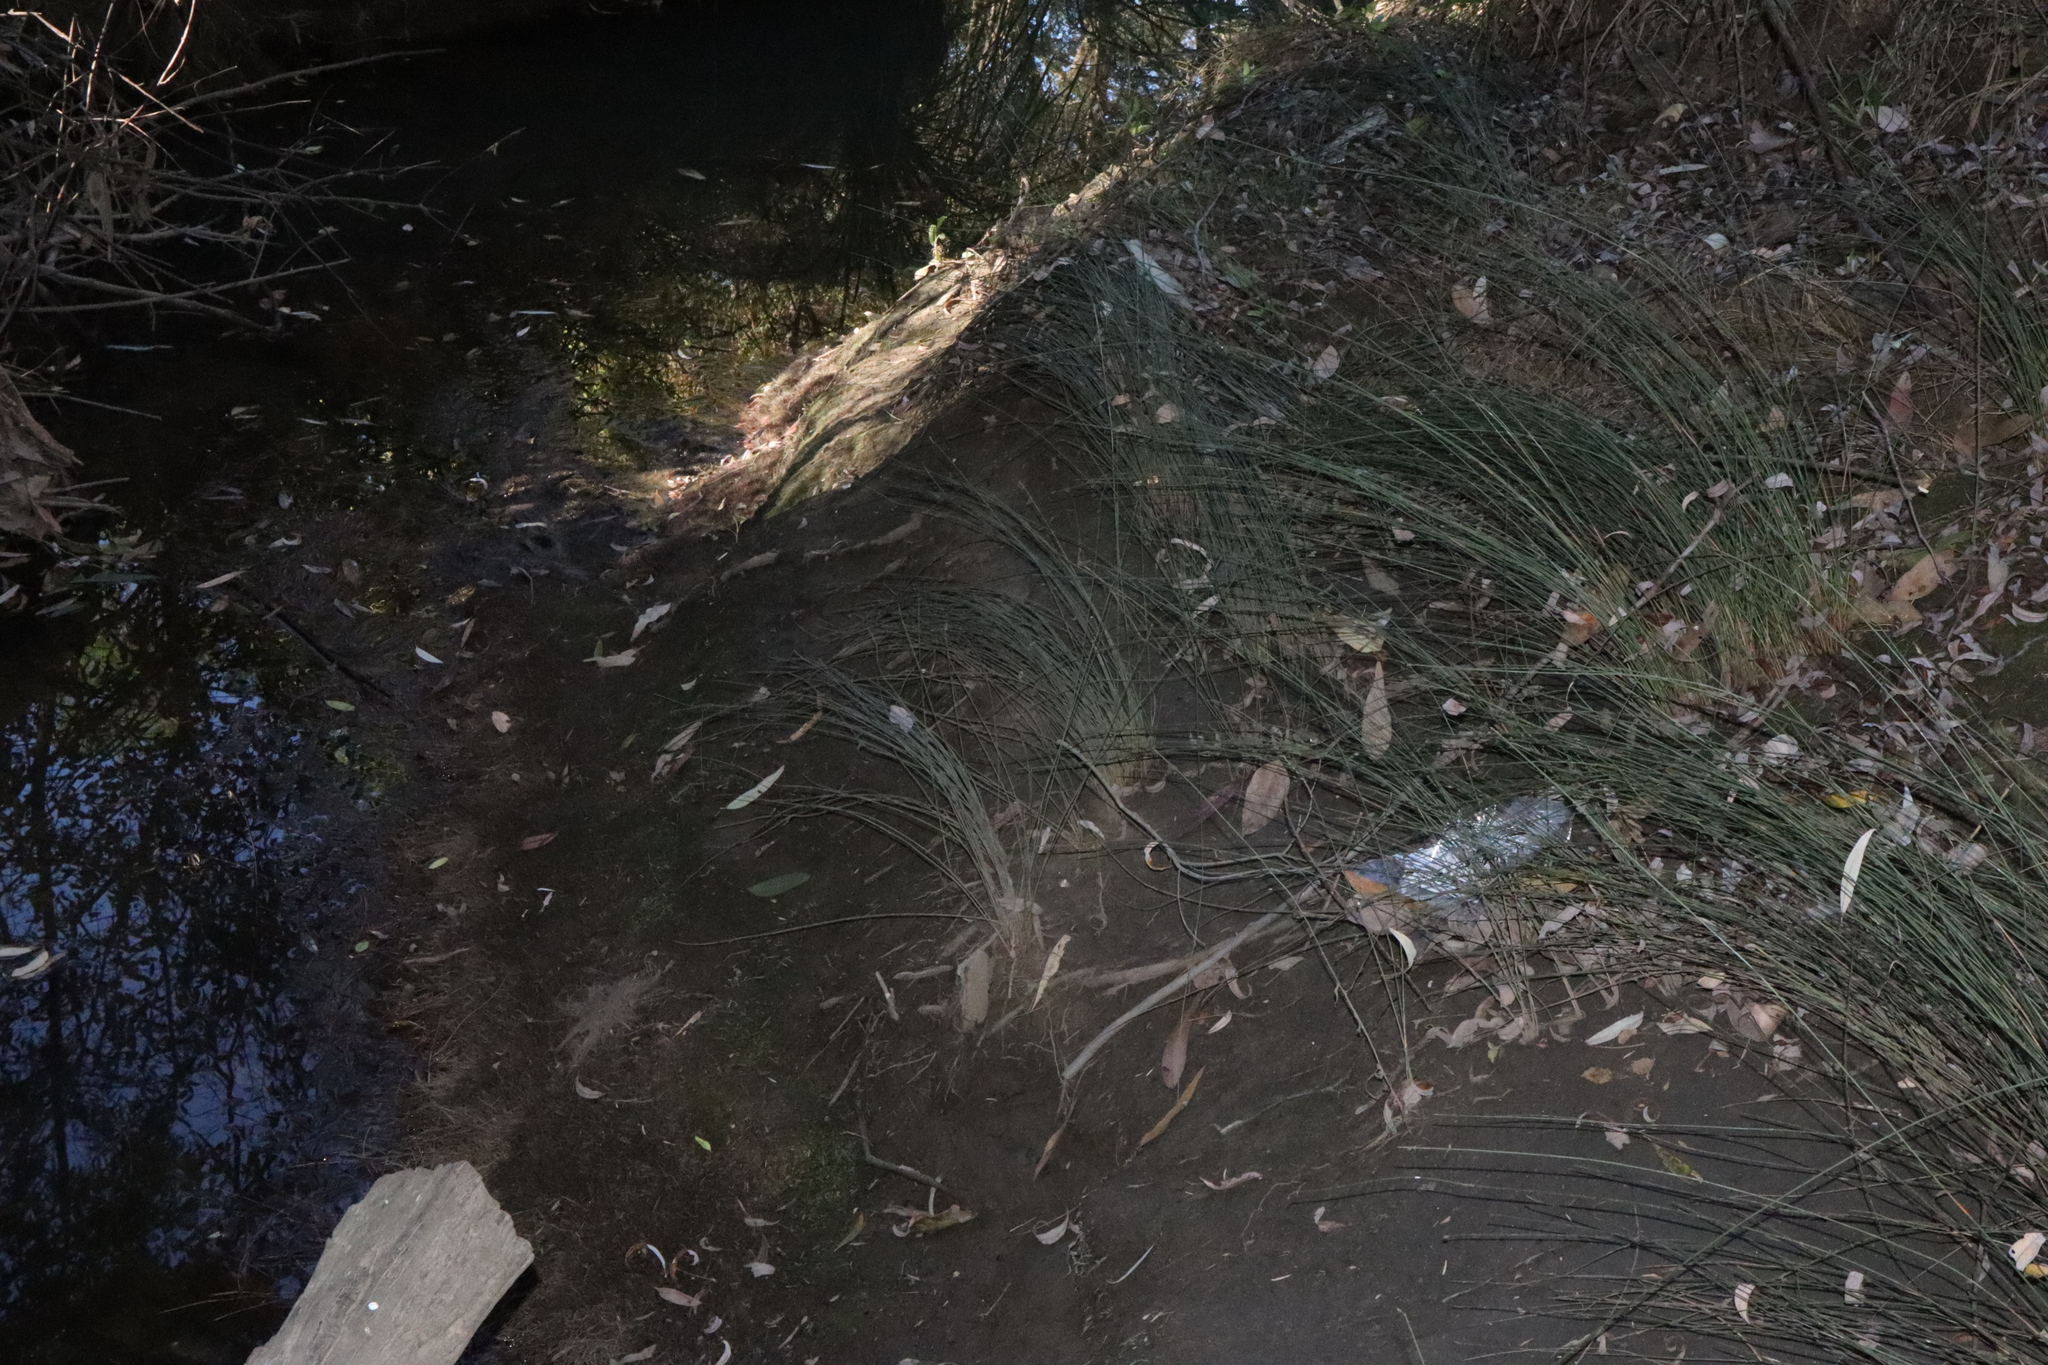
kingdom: Plantae
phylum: Tracheophyta
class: Liliopsida
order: Poales
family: Cyperaceae
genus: Machaerina
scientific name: Machaerina juncea
